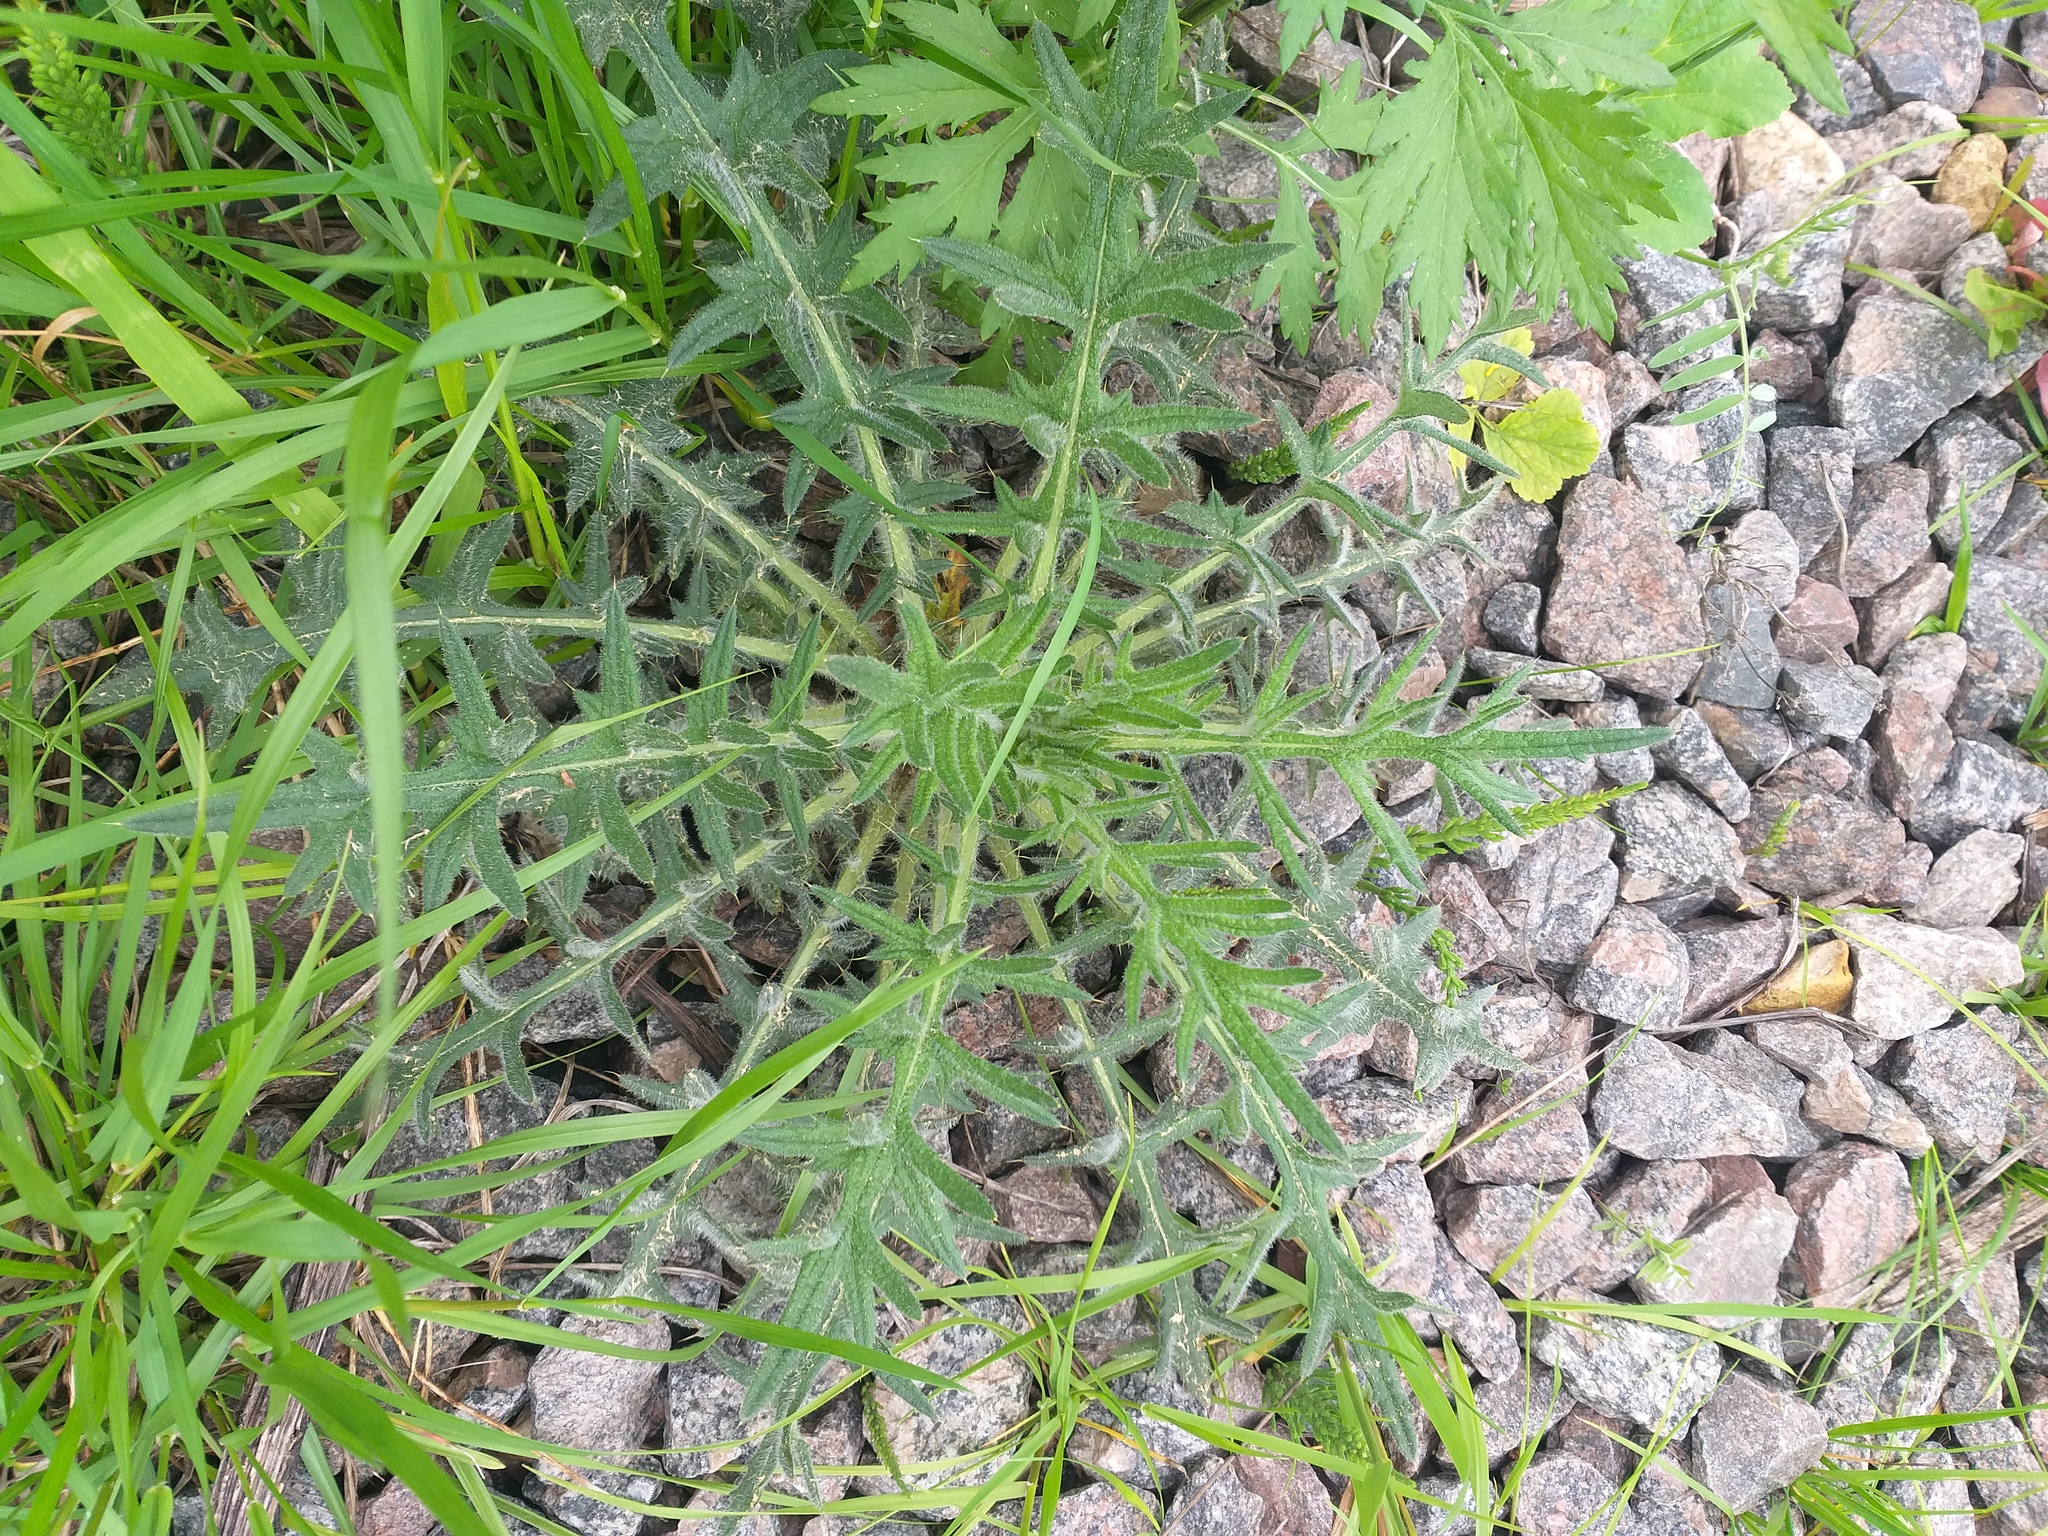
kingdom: Plantae
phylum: Tracheophyta
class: Magnoliopsida
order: Asterales
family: Asteraceae
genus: Cirsium
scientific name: Cirsium vulgare
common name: Bull thistle
